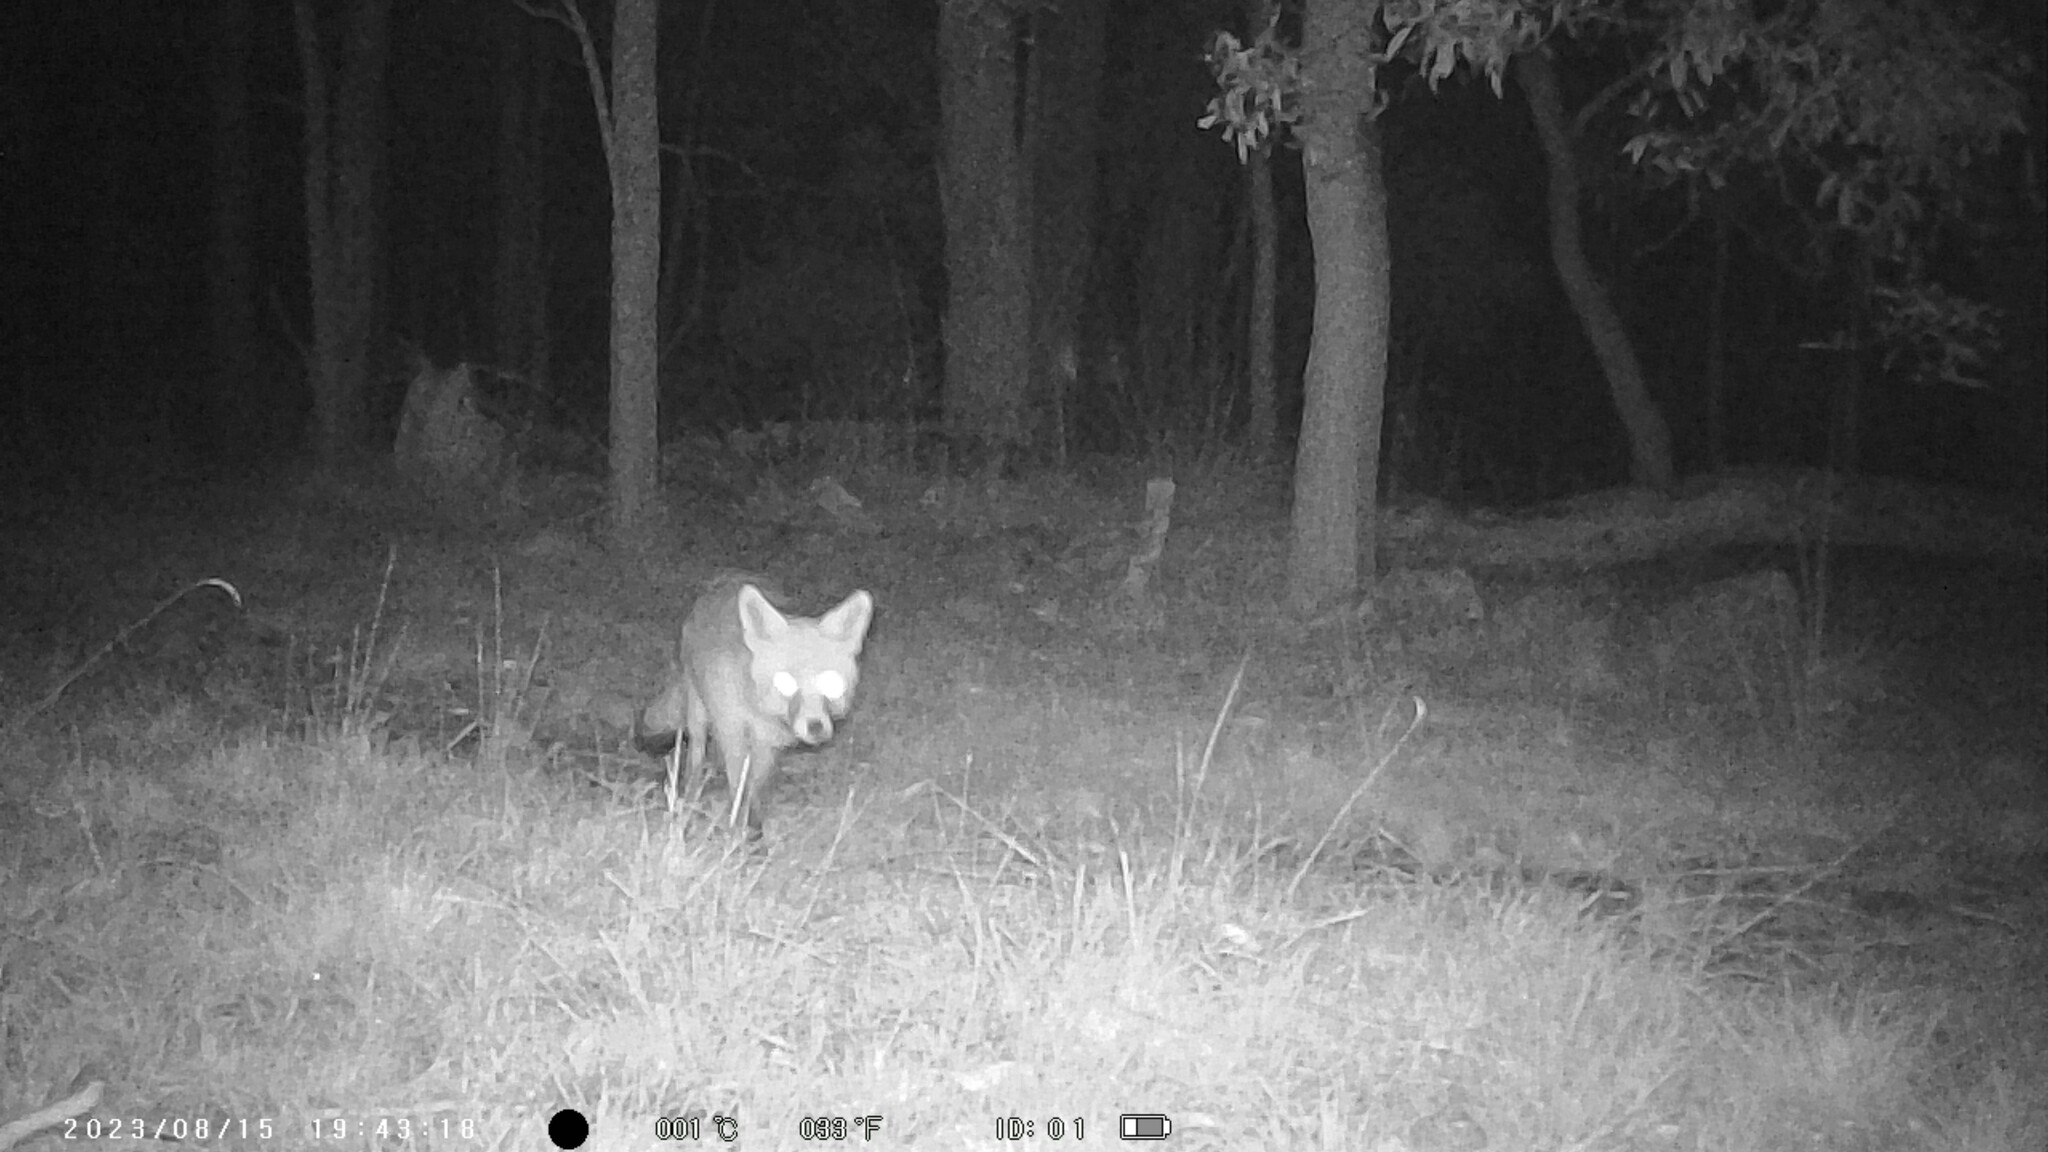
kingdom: Animalia
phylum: Chordata
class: Mammalia
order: Carnivora
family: Canidae
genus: Vulpes
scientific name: Vulpes vulpes
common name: Red fox
